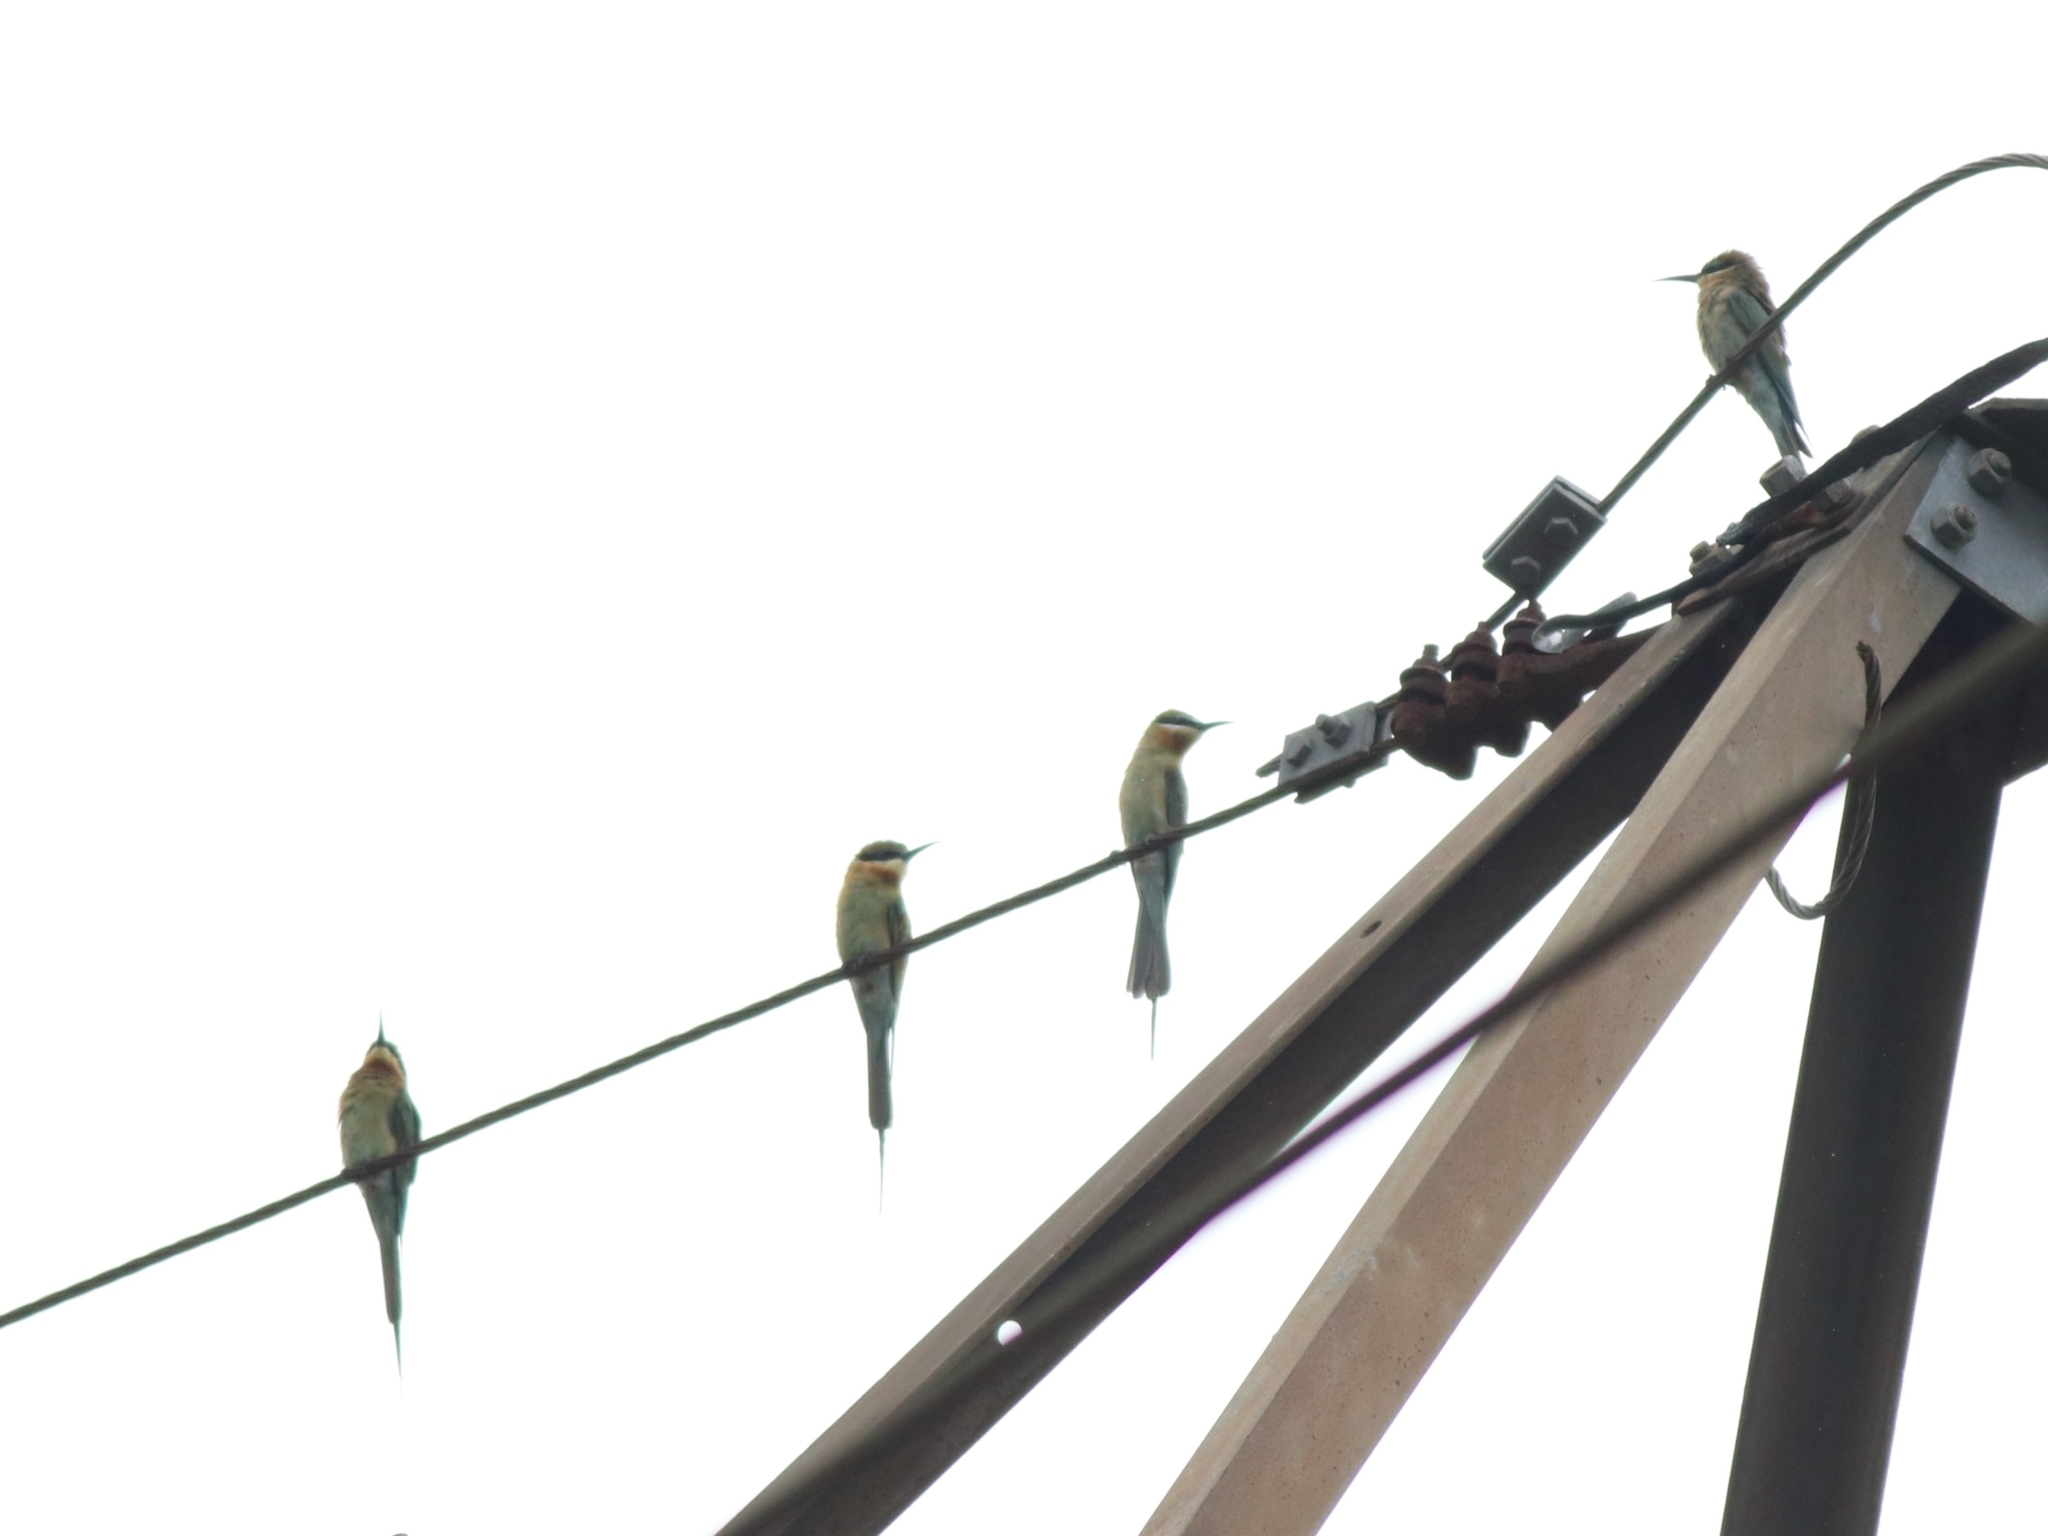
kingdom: Animalia
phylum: Chordata
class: Aves
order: Coraciiformes
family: Meropidae
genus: Merops
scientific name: Merops philippinus
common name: Blue-tailed bee-eater
